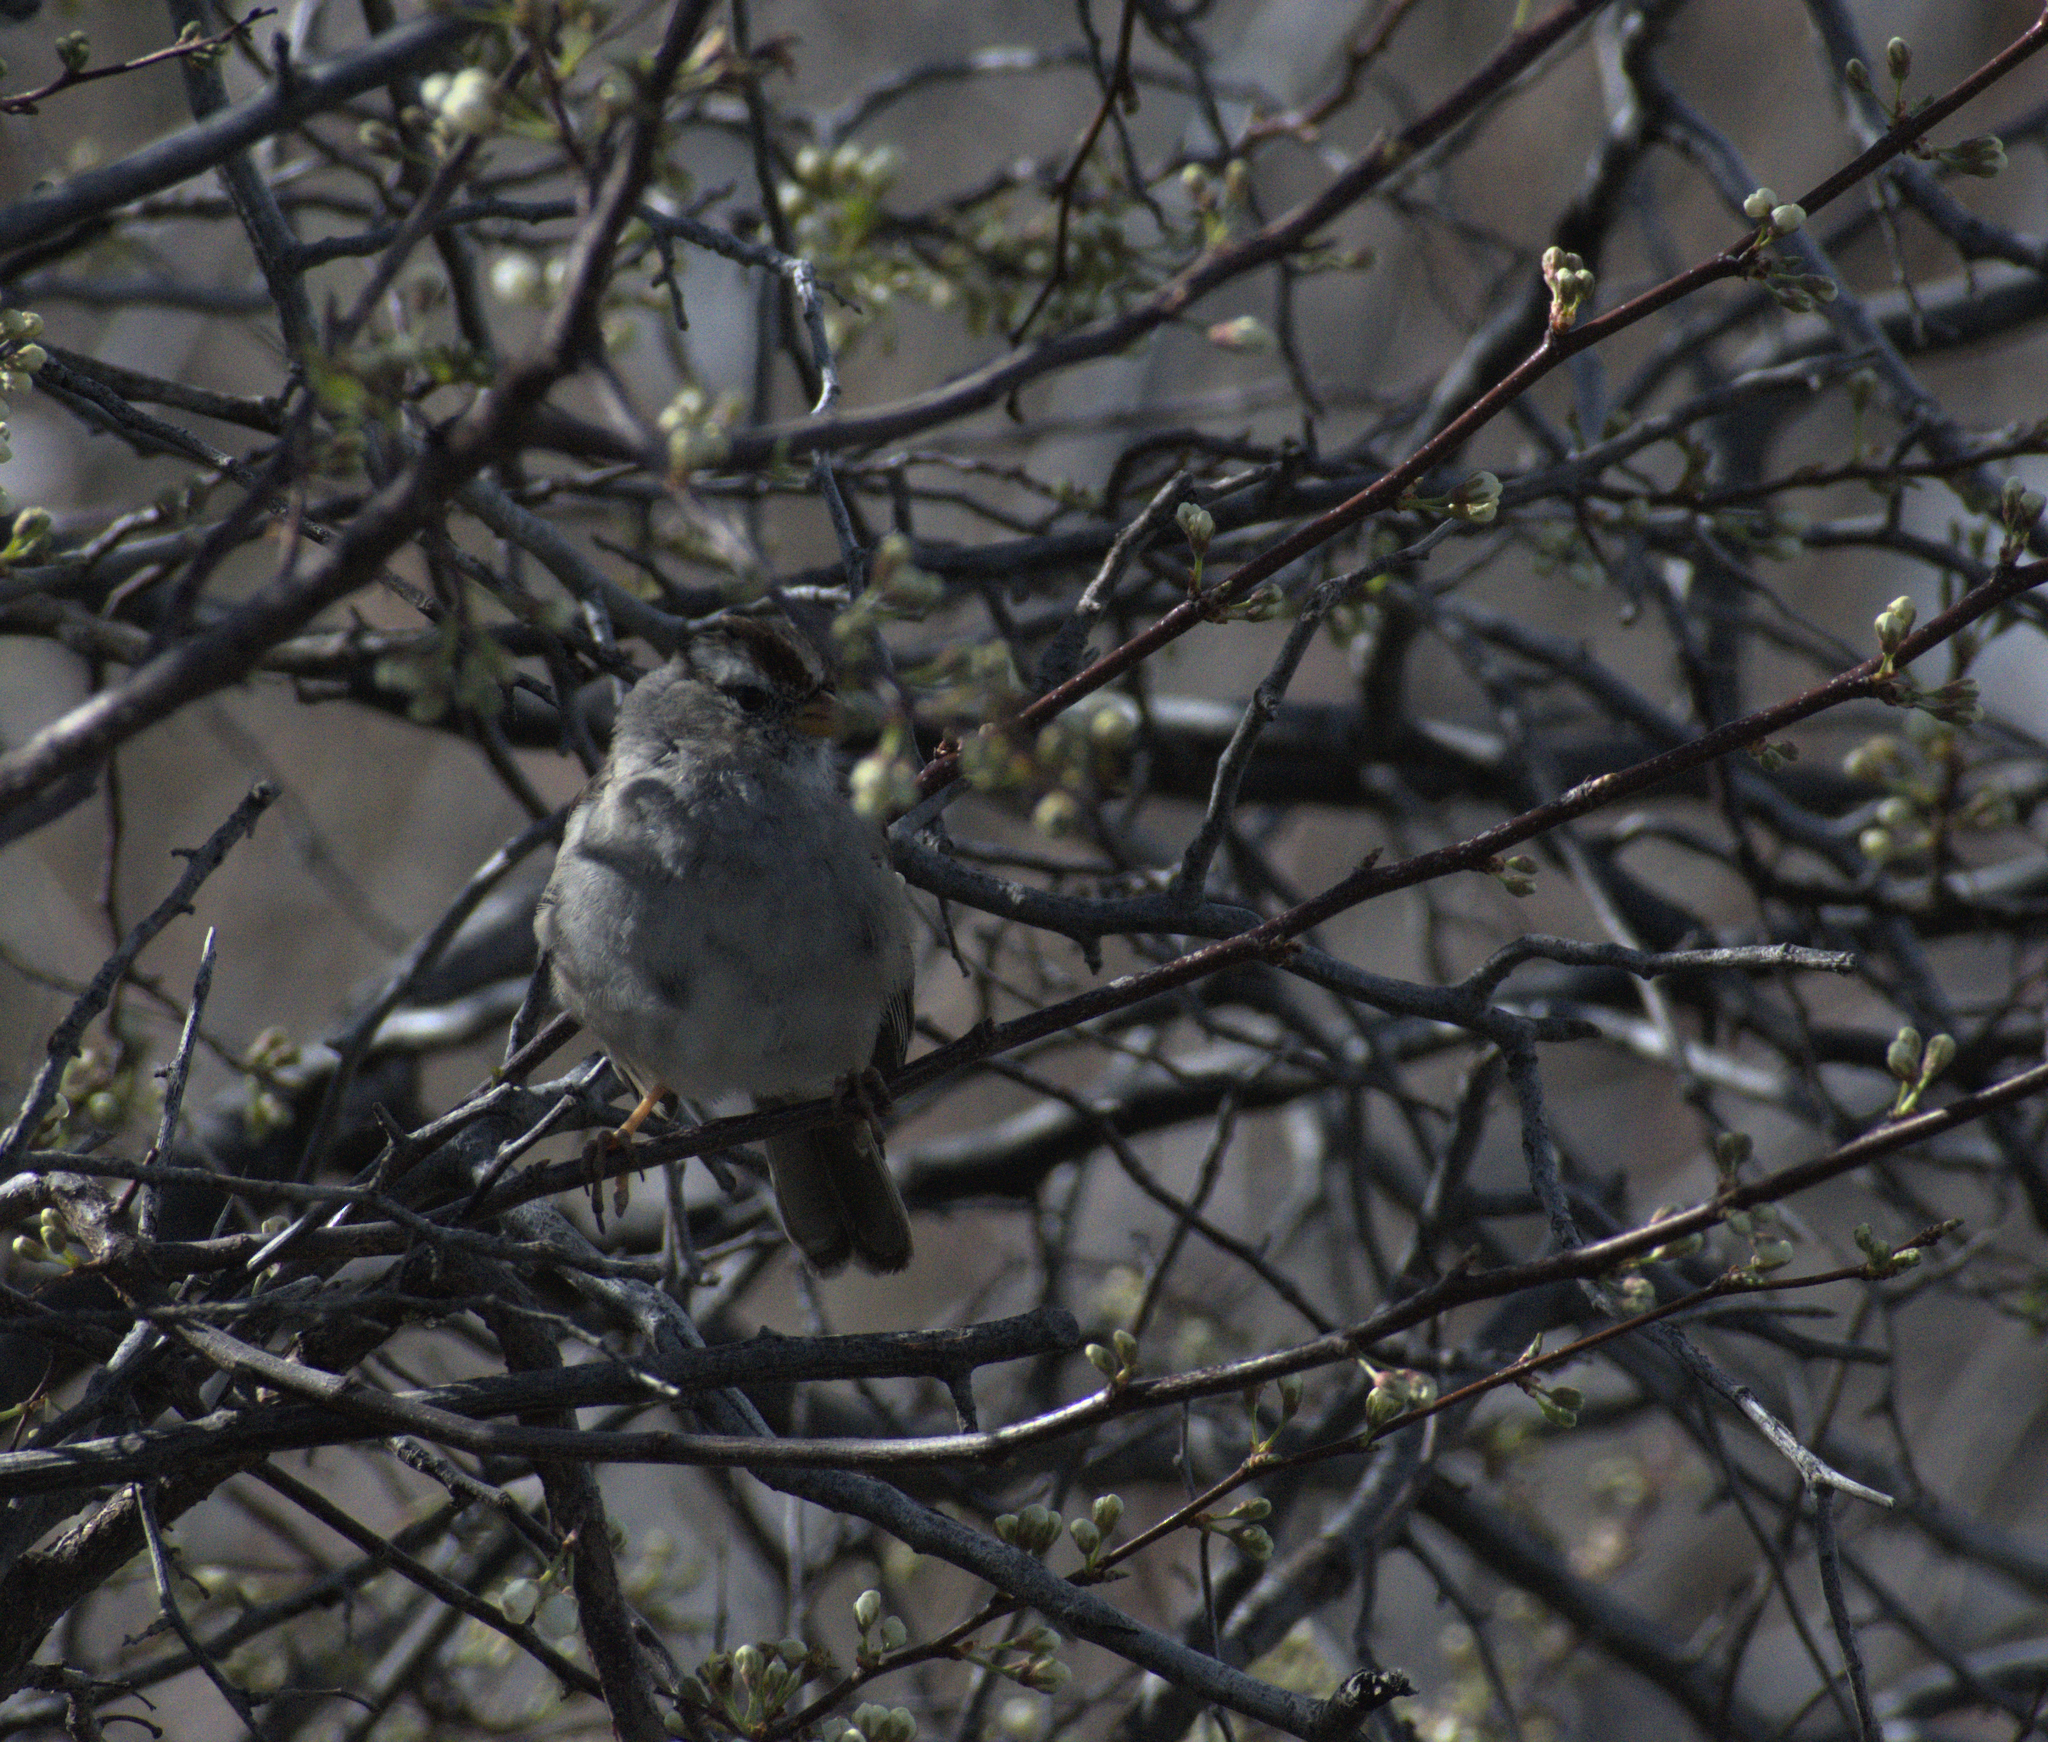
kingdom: Animalia
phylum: Chordata
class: Aves
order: Passeriformes
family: Passerellidae
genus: Zonotrichia
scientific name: Zonotrichia leucophrys
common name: White-crowned sparrow
